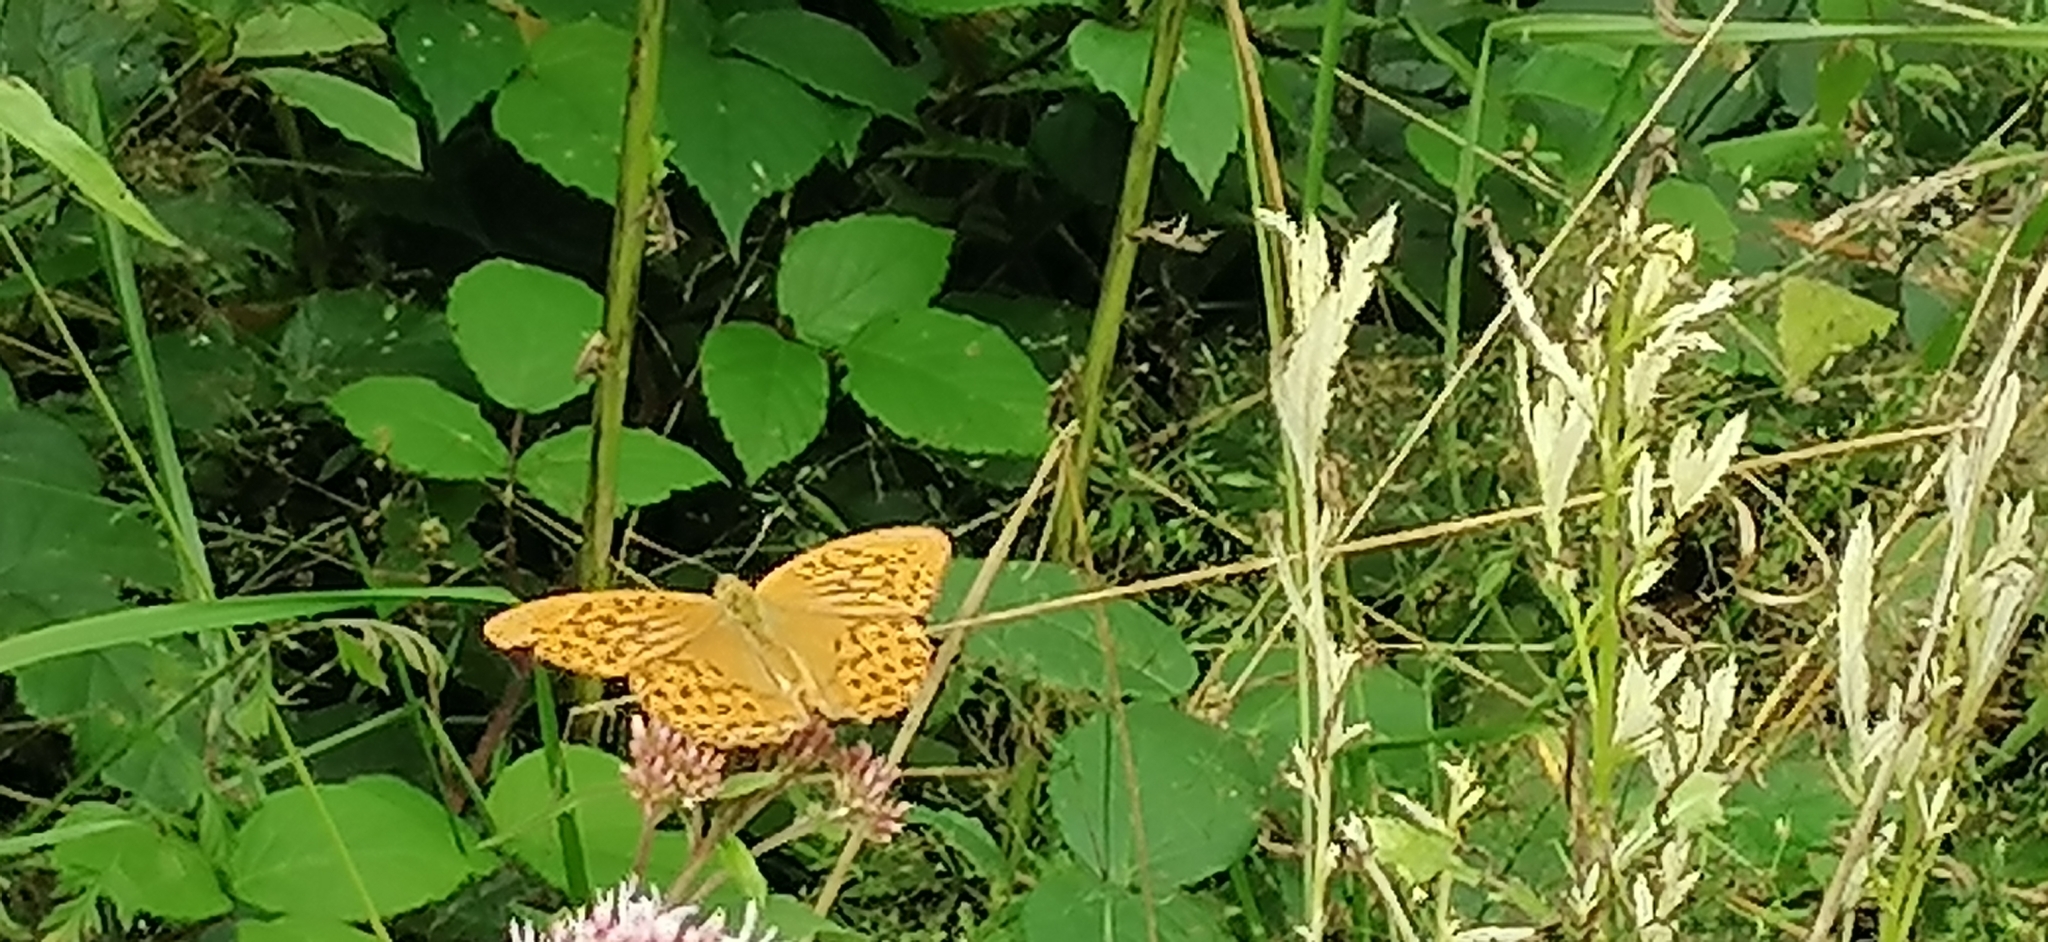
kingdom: Animalia
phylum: Arthropoda
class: Insecta
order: Lepidoptera
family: Nymphalidae
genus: Argynnis
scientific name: Argynnis paphia
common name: Silver-washed fritillary
